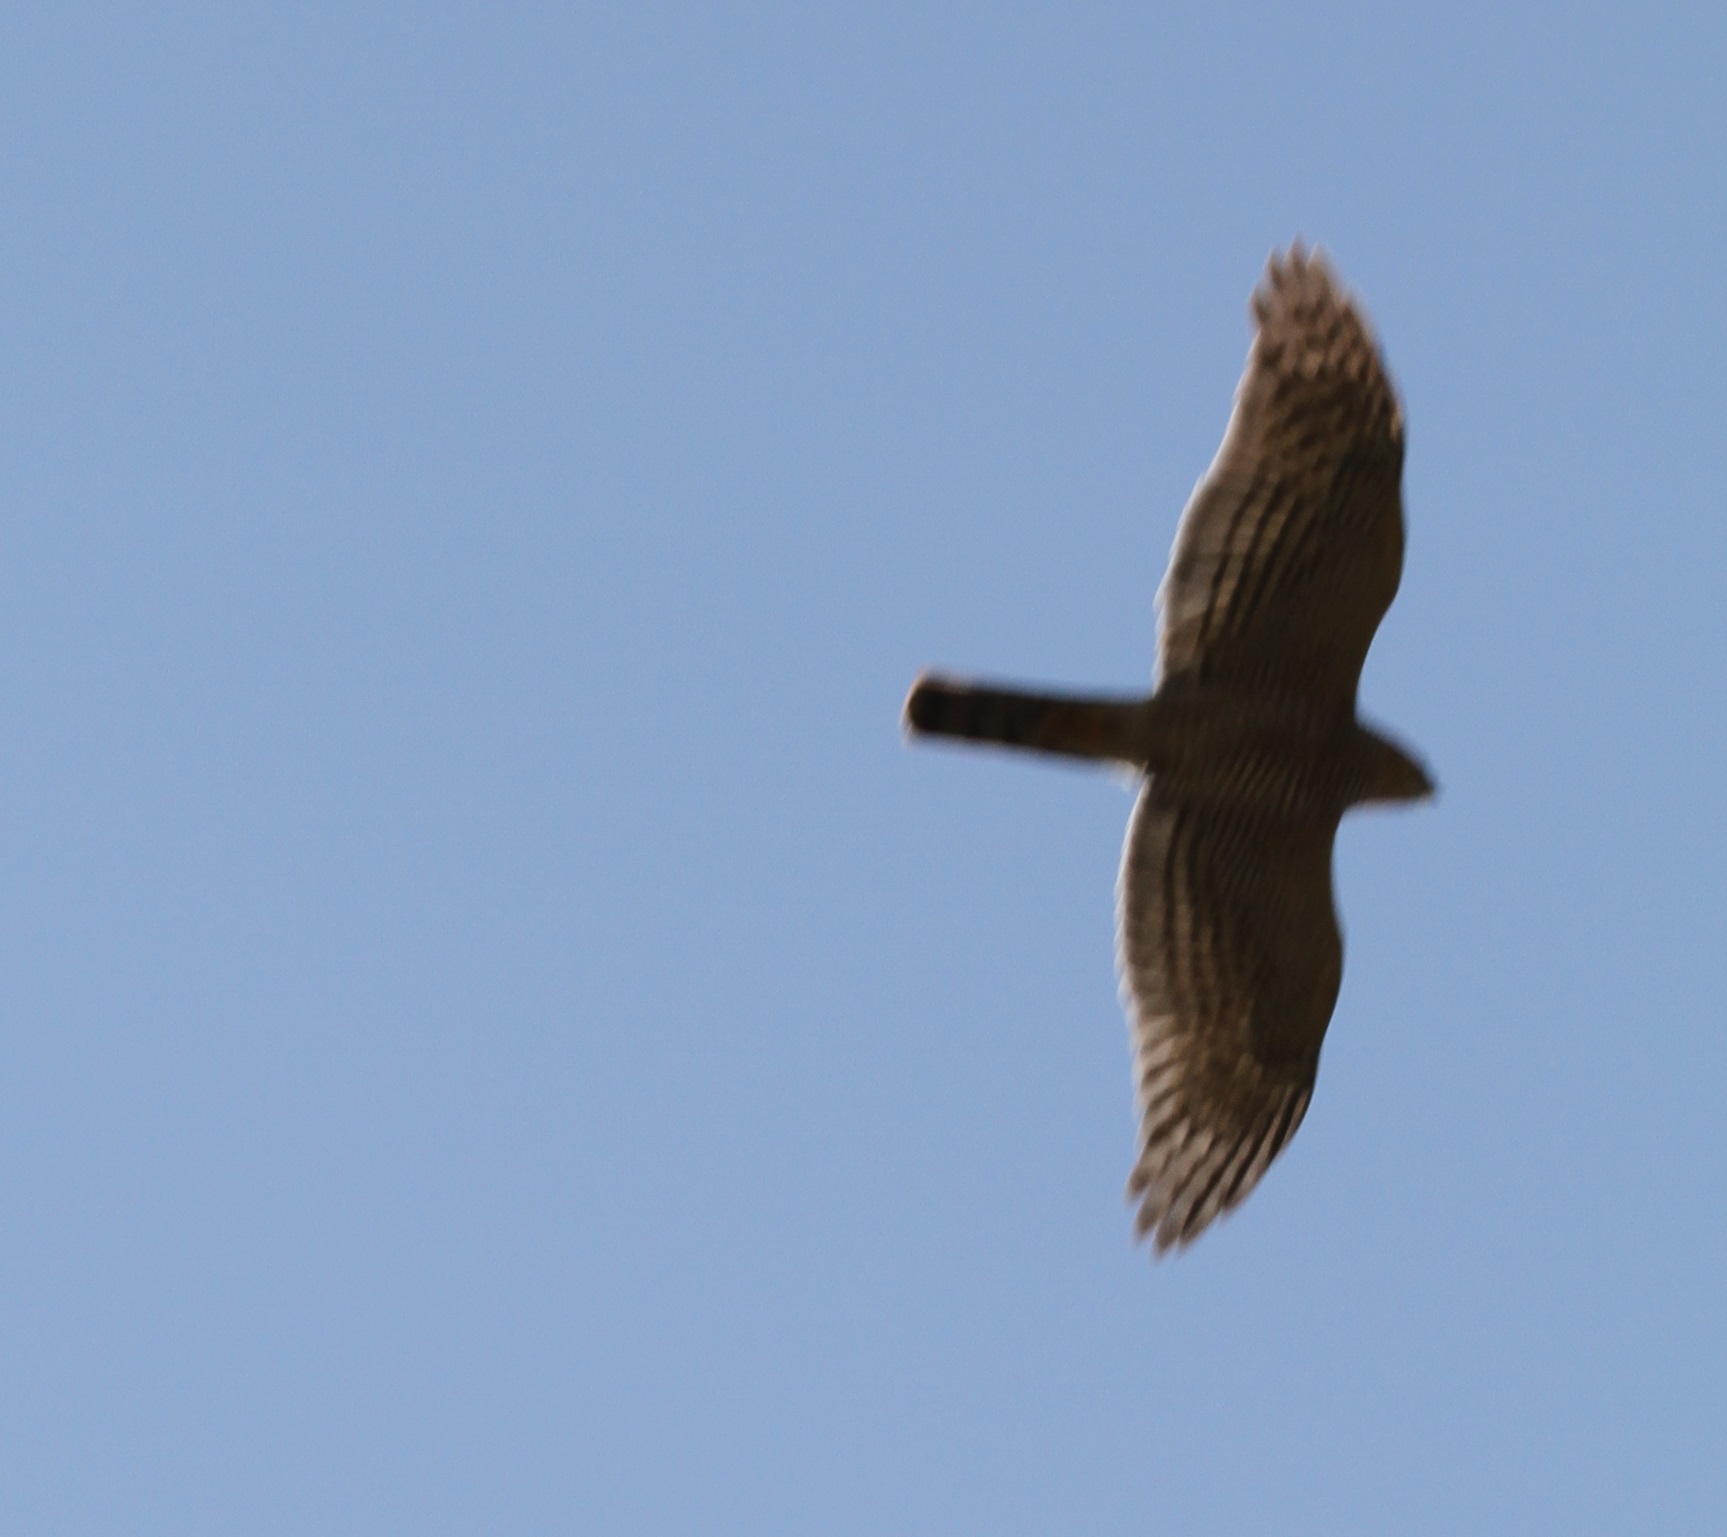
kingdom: Animalia
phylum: Chordata
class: Aves
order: Accipitriformes
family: Accipitridae
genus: Accipiter
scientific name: Accipiter nisus
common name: Eurasian sparrowhawk
